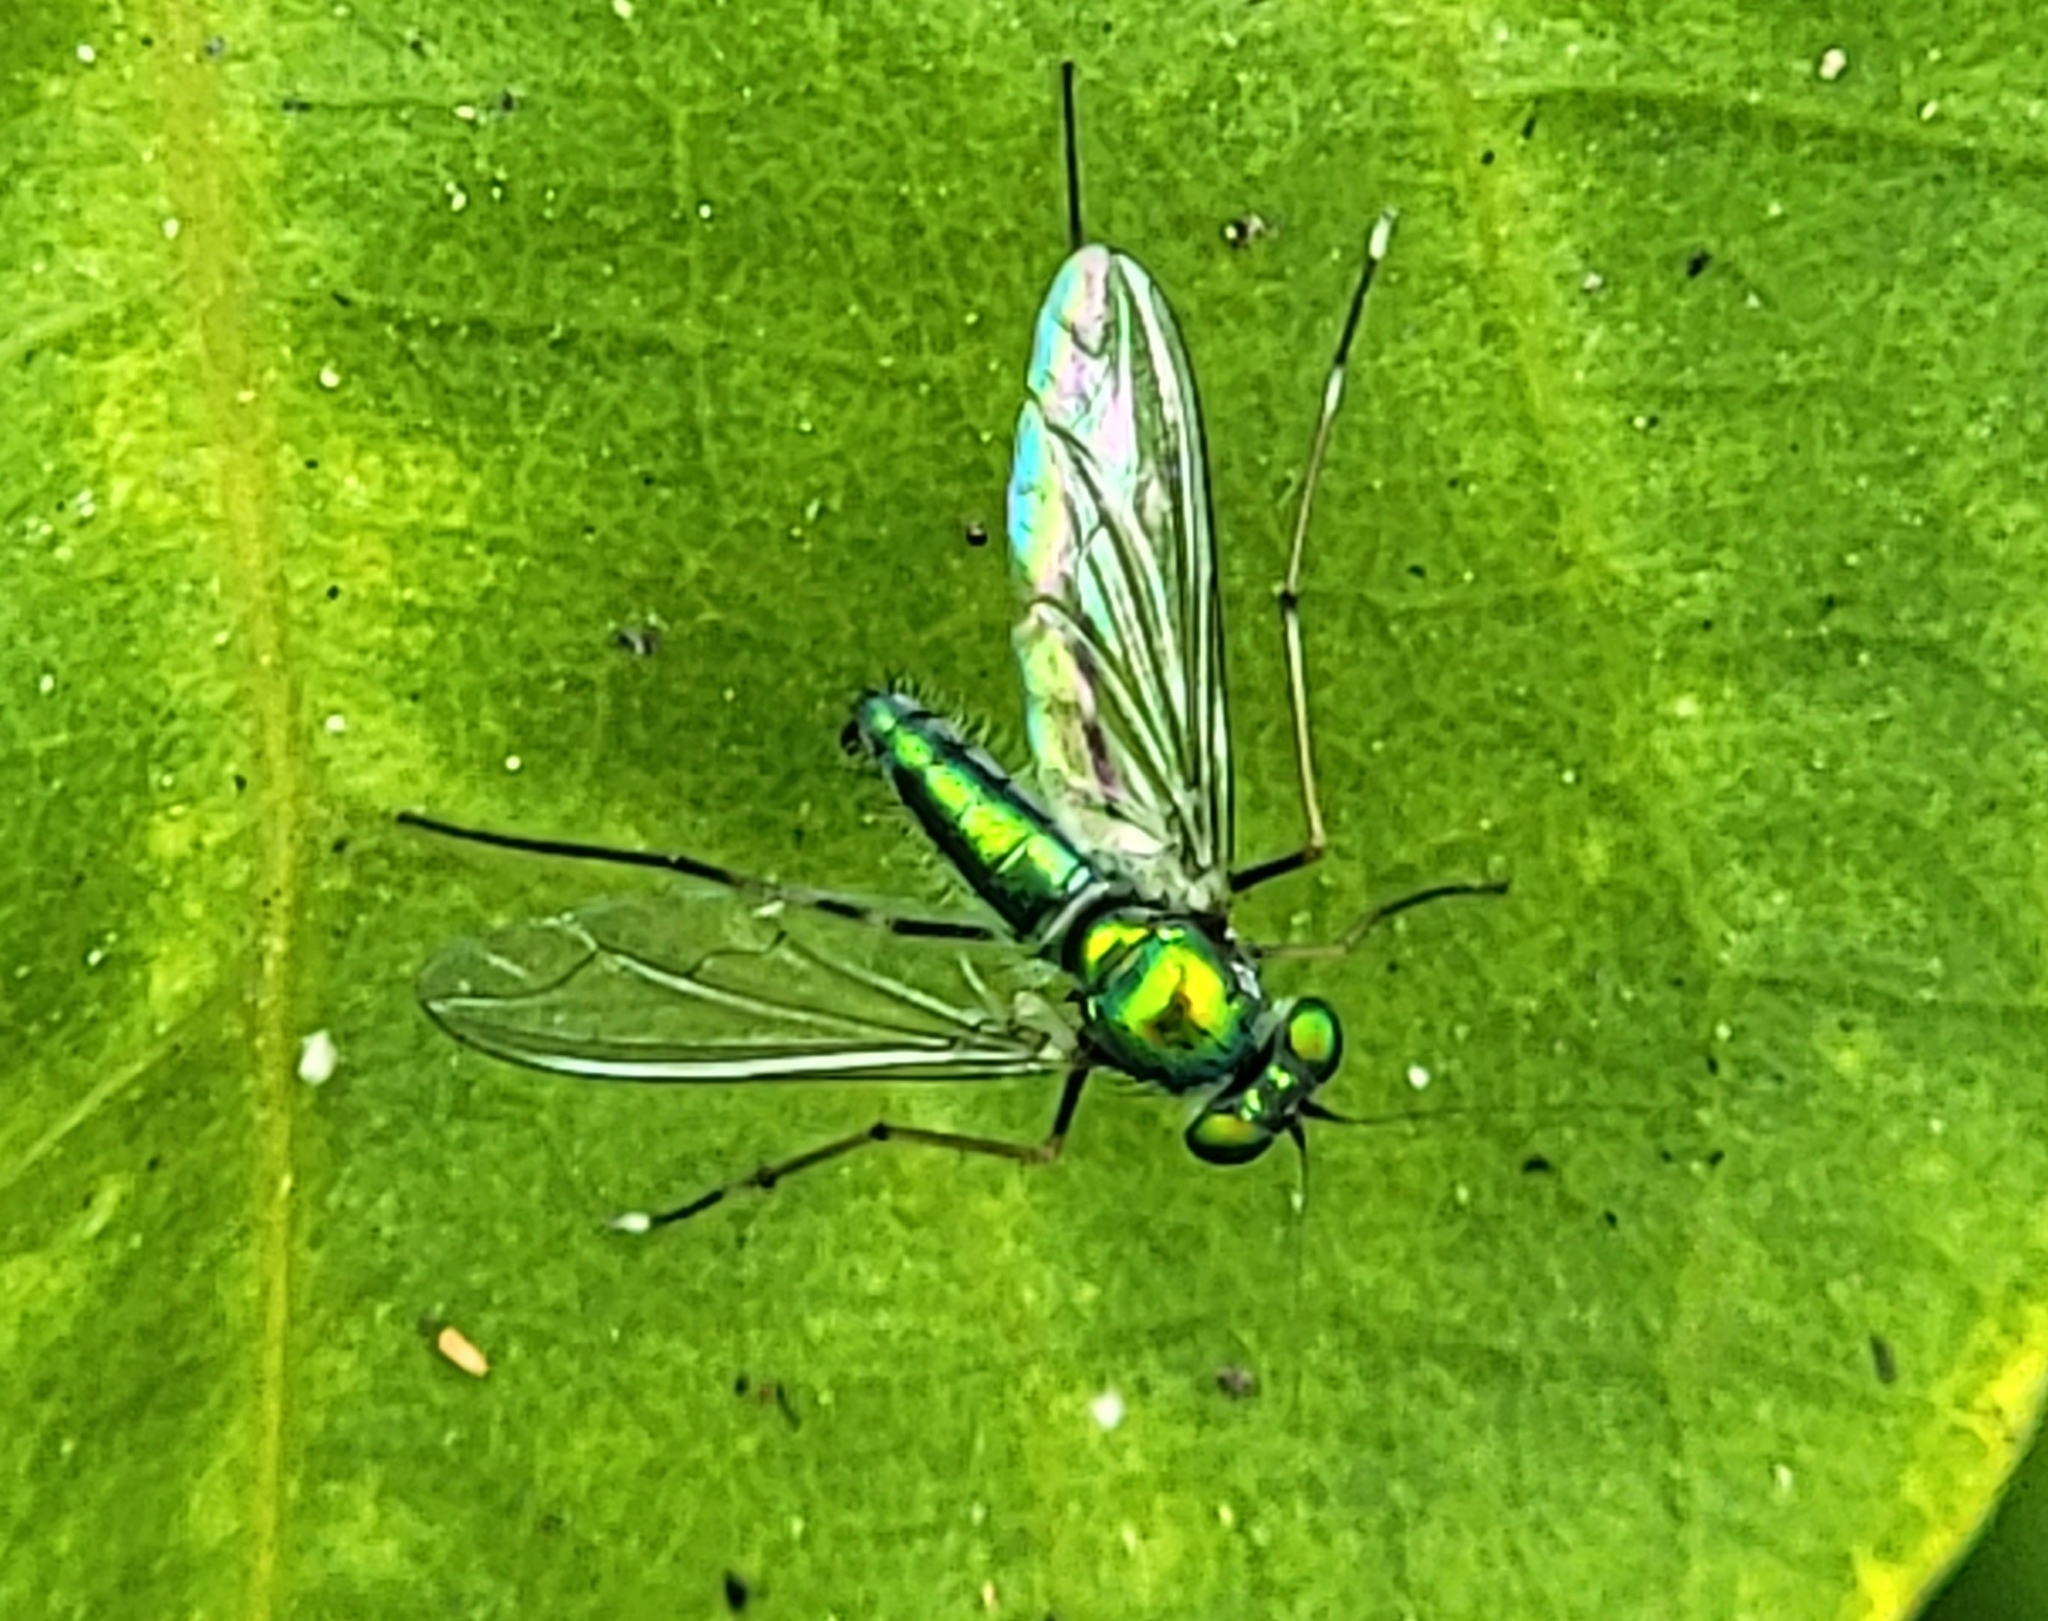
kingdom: Animalia
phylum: Arthropoda
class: Insecta
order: Diptera
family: Dolichopodidae
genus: Chrysosoma
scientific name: Chrysosoma leucopogon
